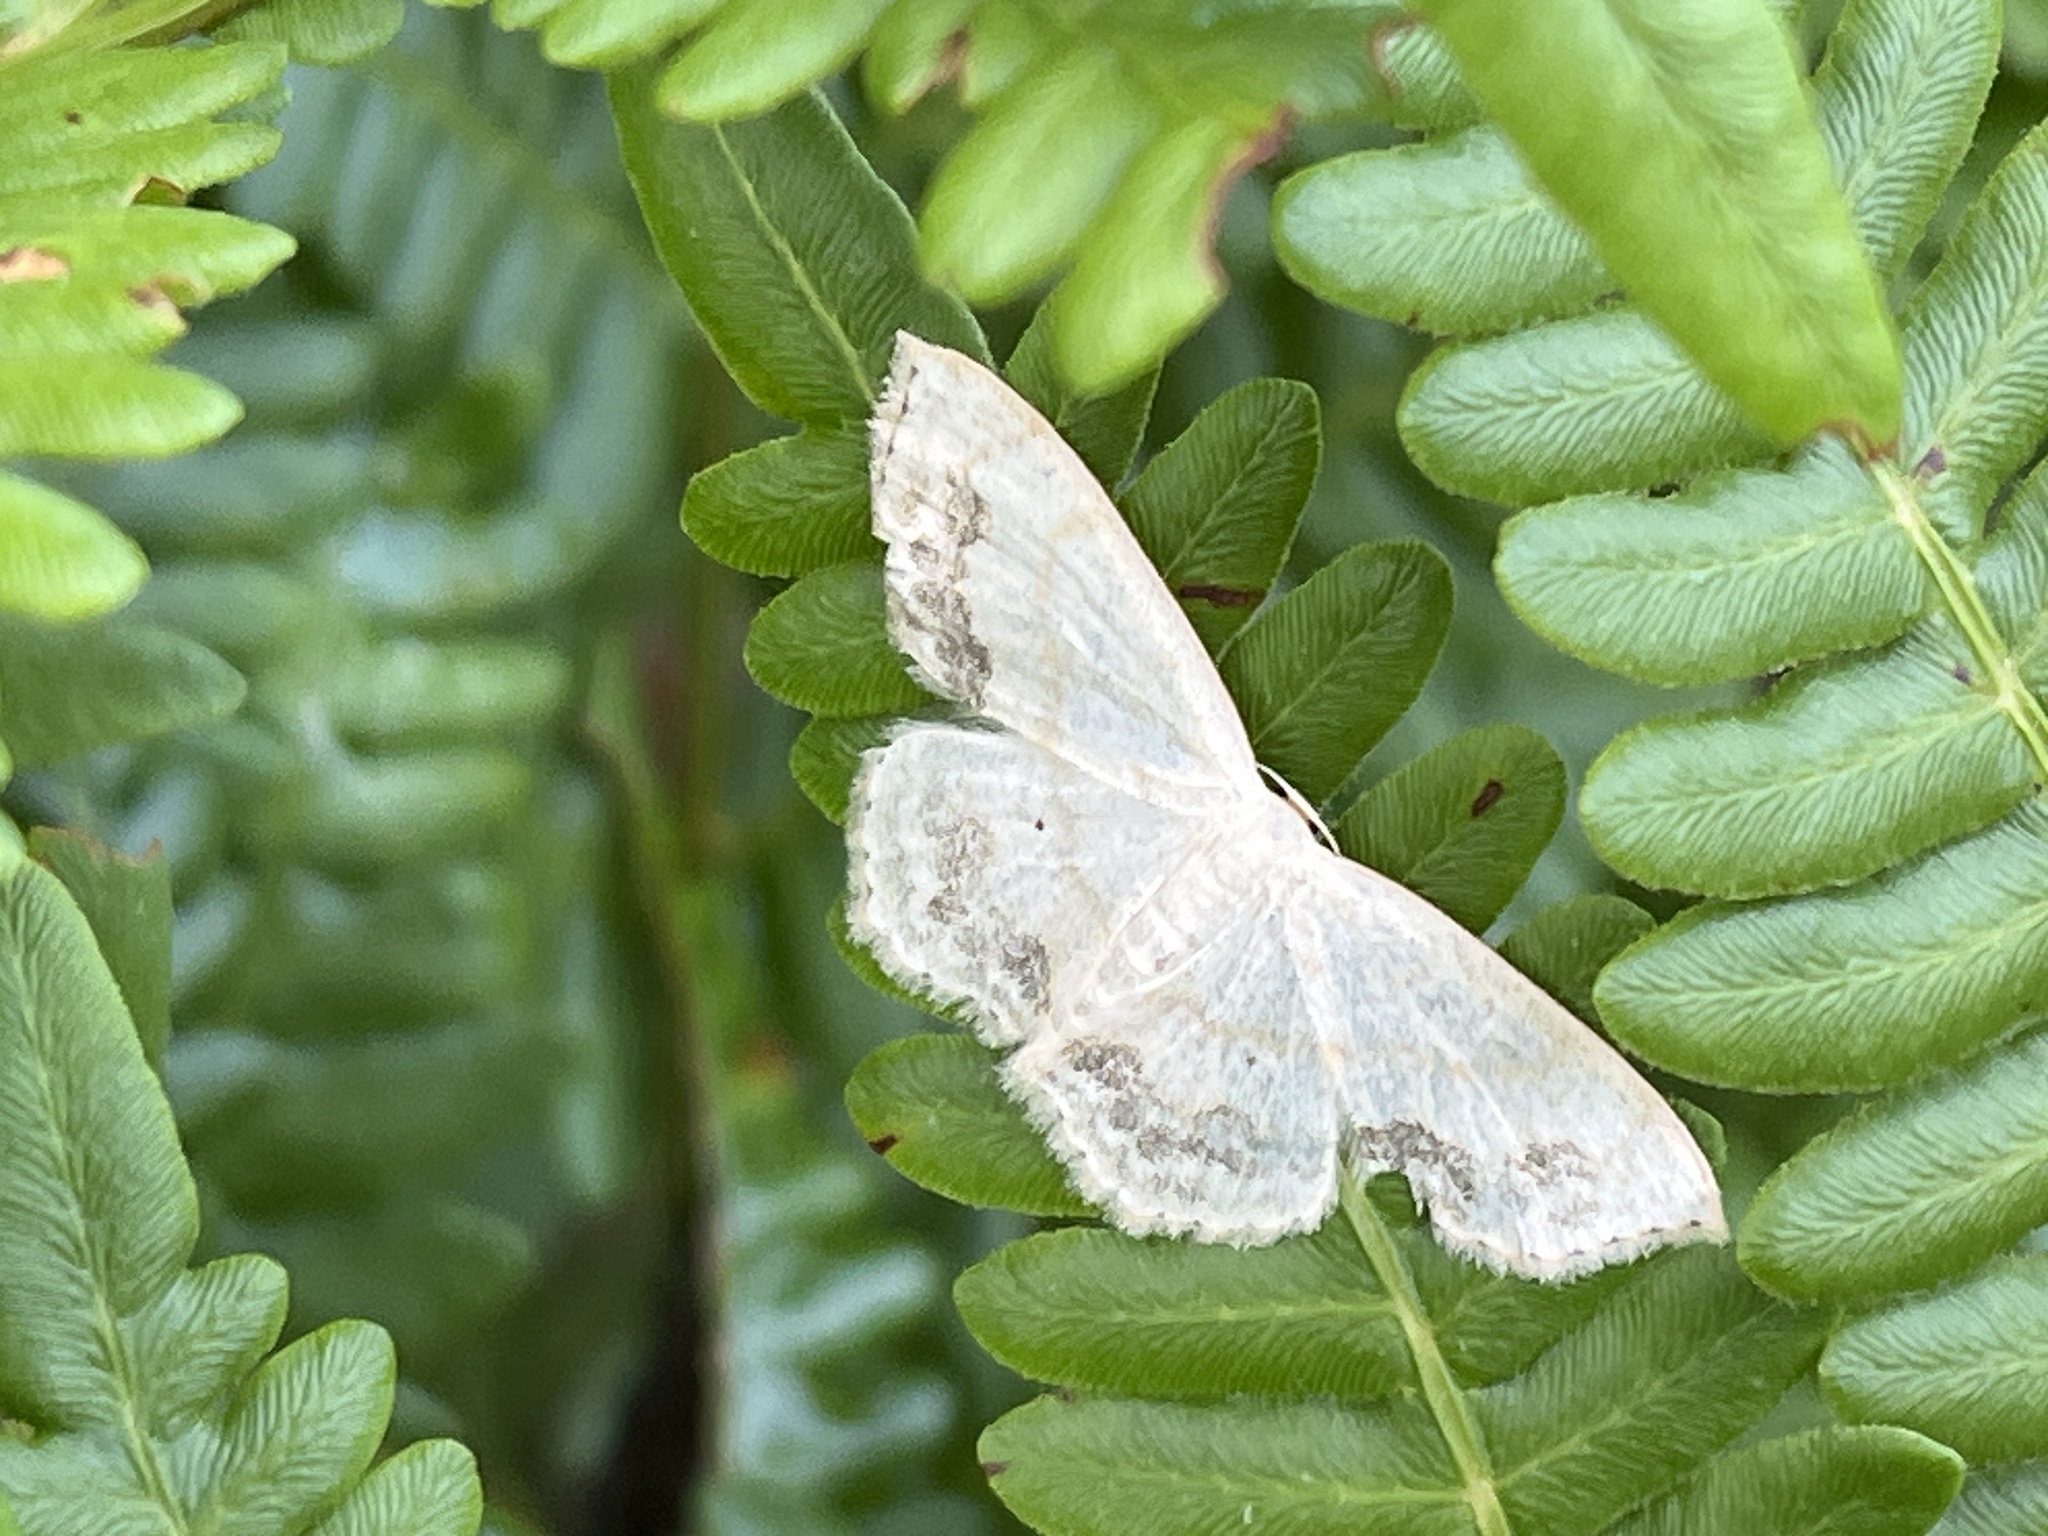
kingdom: Animalia
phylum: Arthropoda
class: Insecta
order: Lepidoptera
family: Geometridae
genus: Scopula
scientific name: Scopula limboundata
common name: Large lace border
